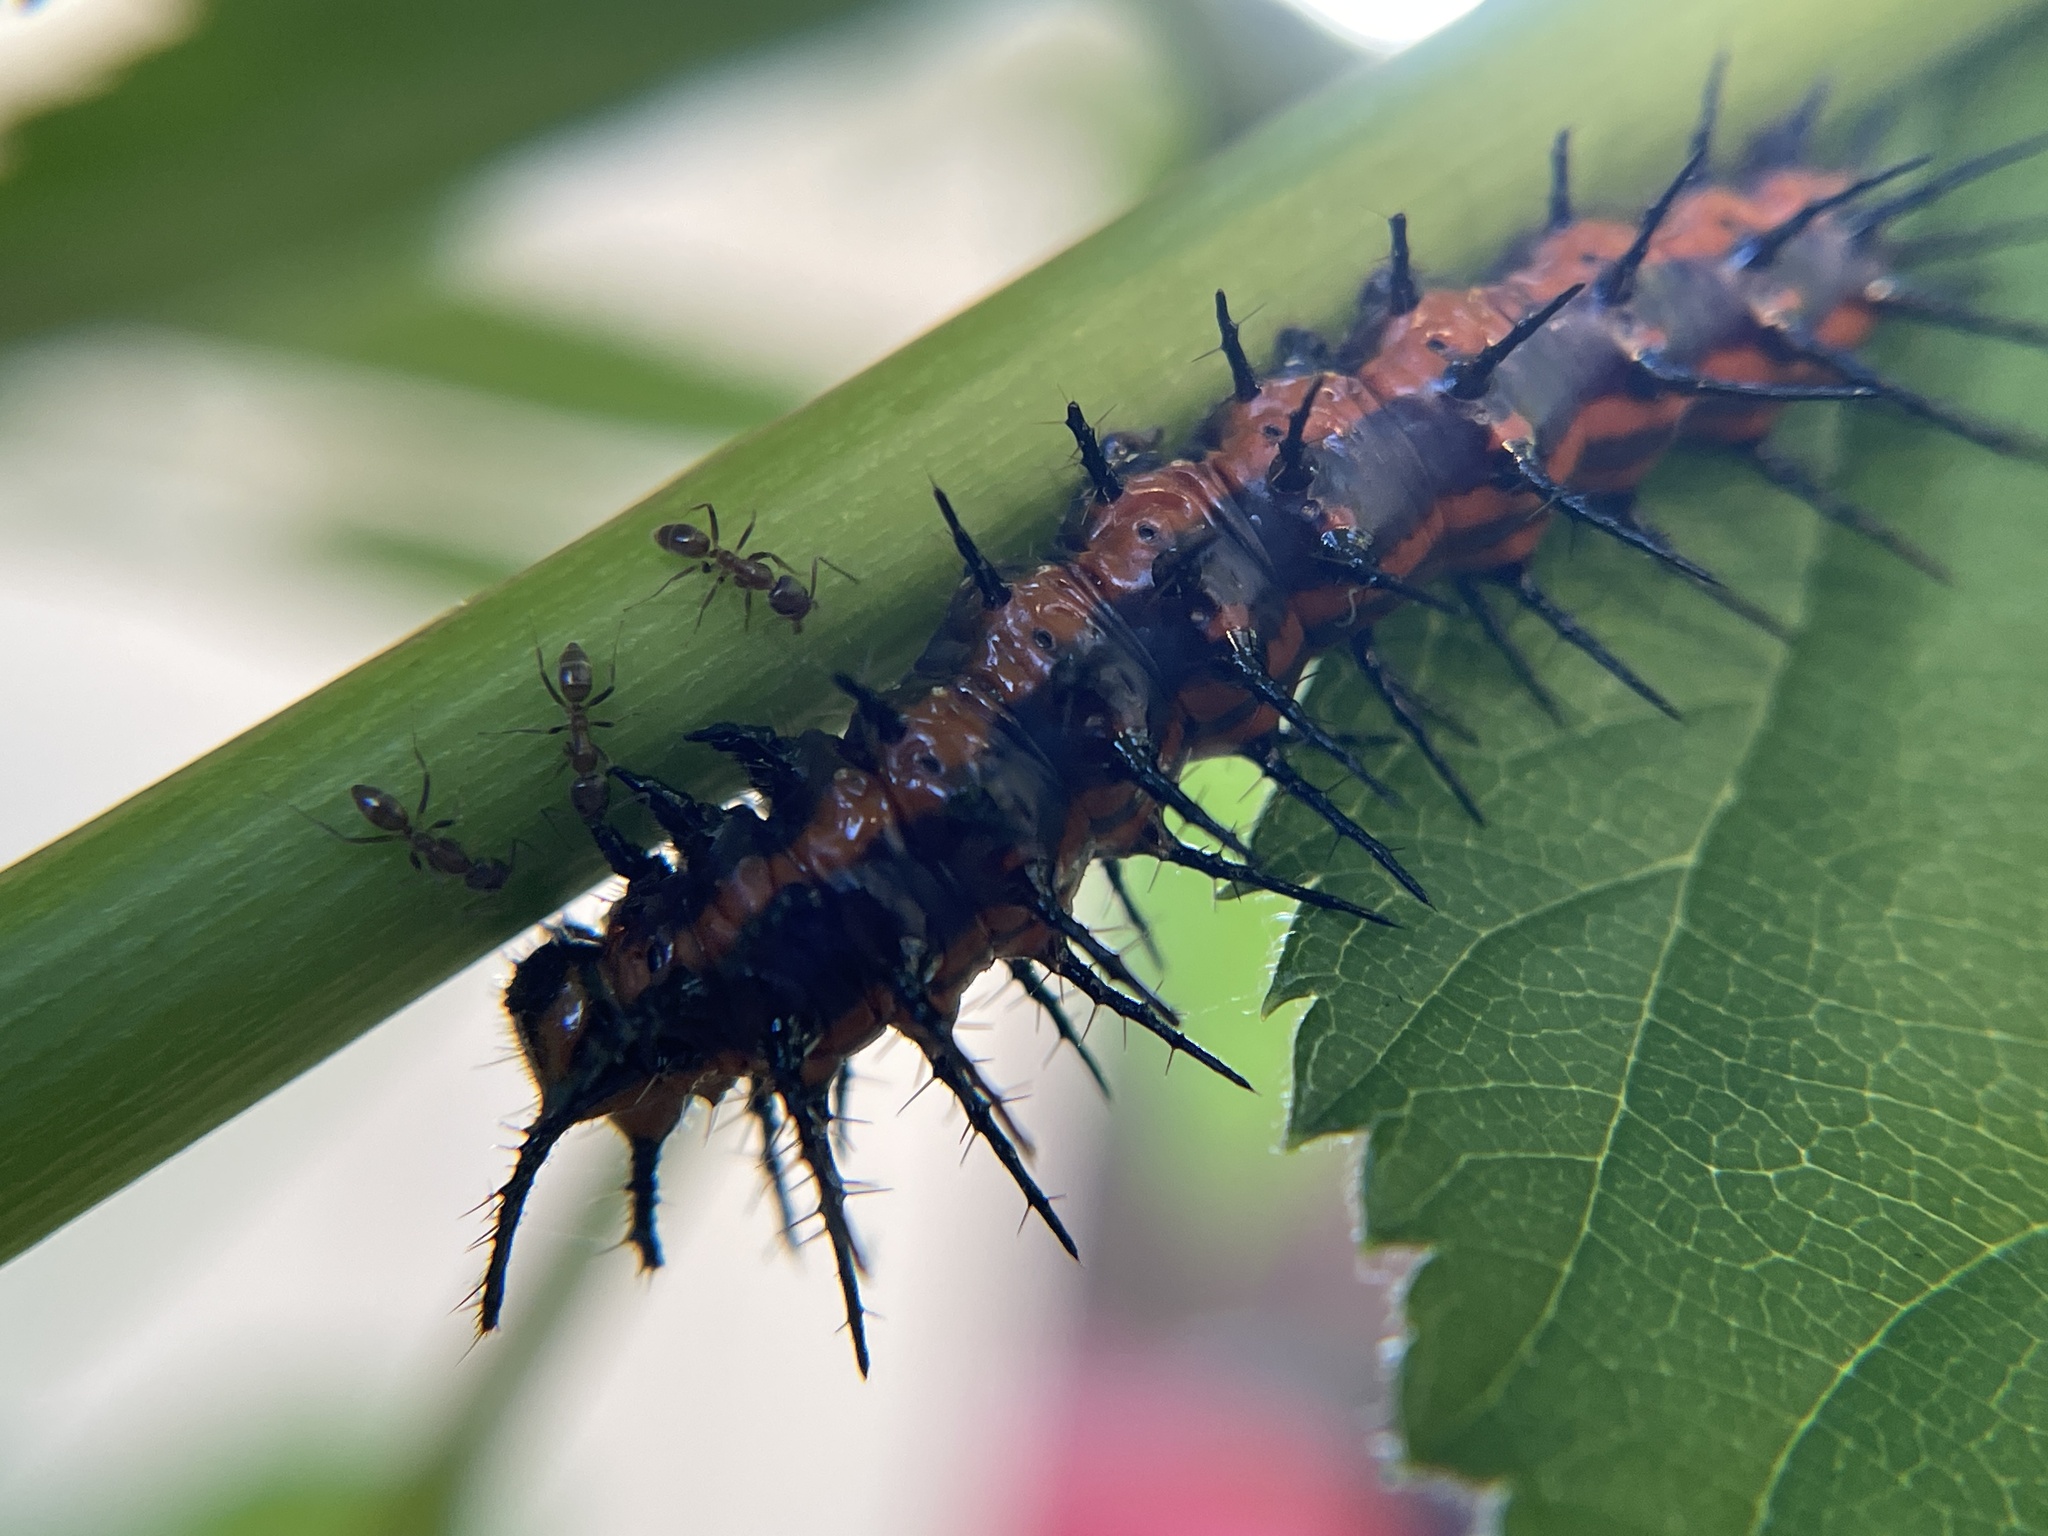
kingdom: Animalia
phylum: Arthropoda
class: Insecta
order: Lepidoptera
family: Nymphalidae
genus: Dione
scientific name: Dione vanillae
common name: Gulf fritillary
